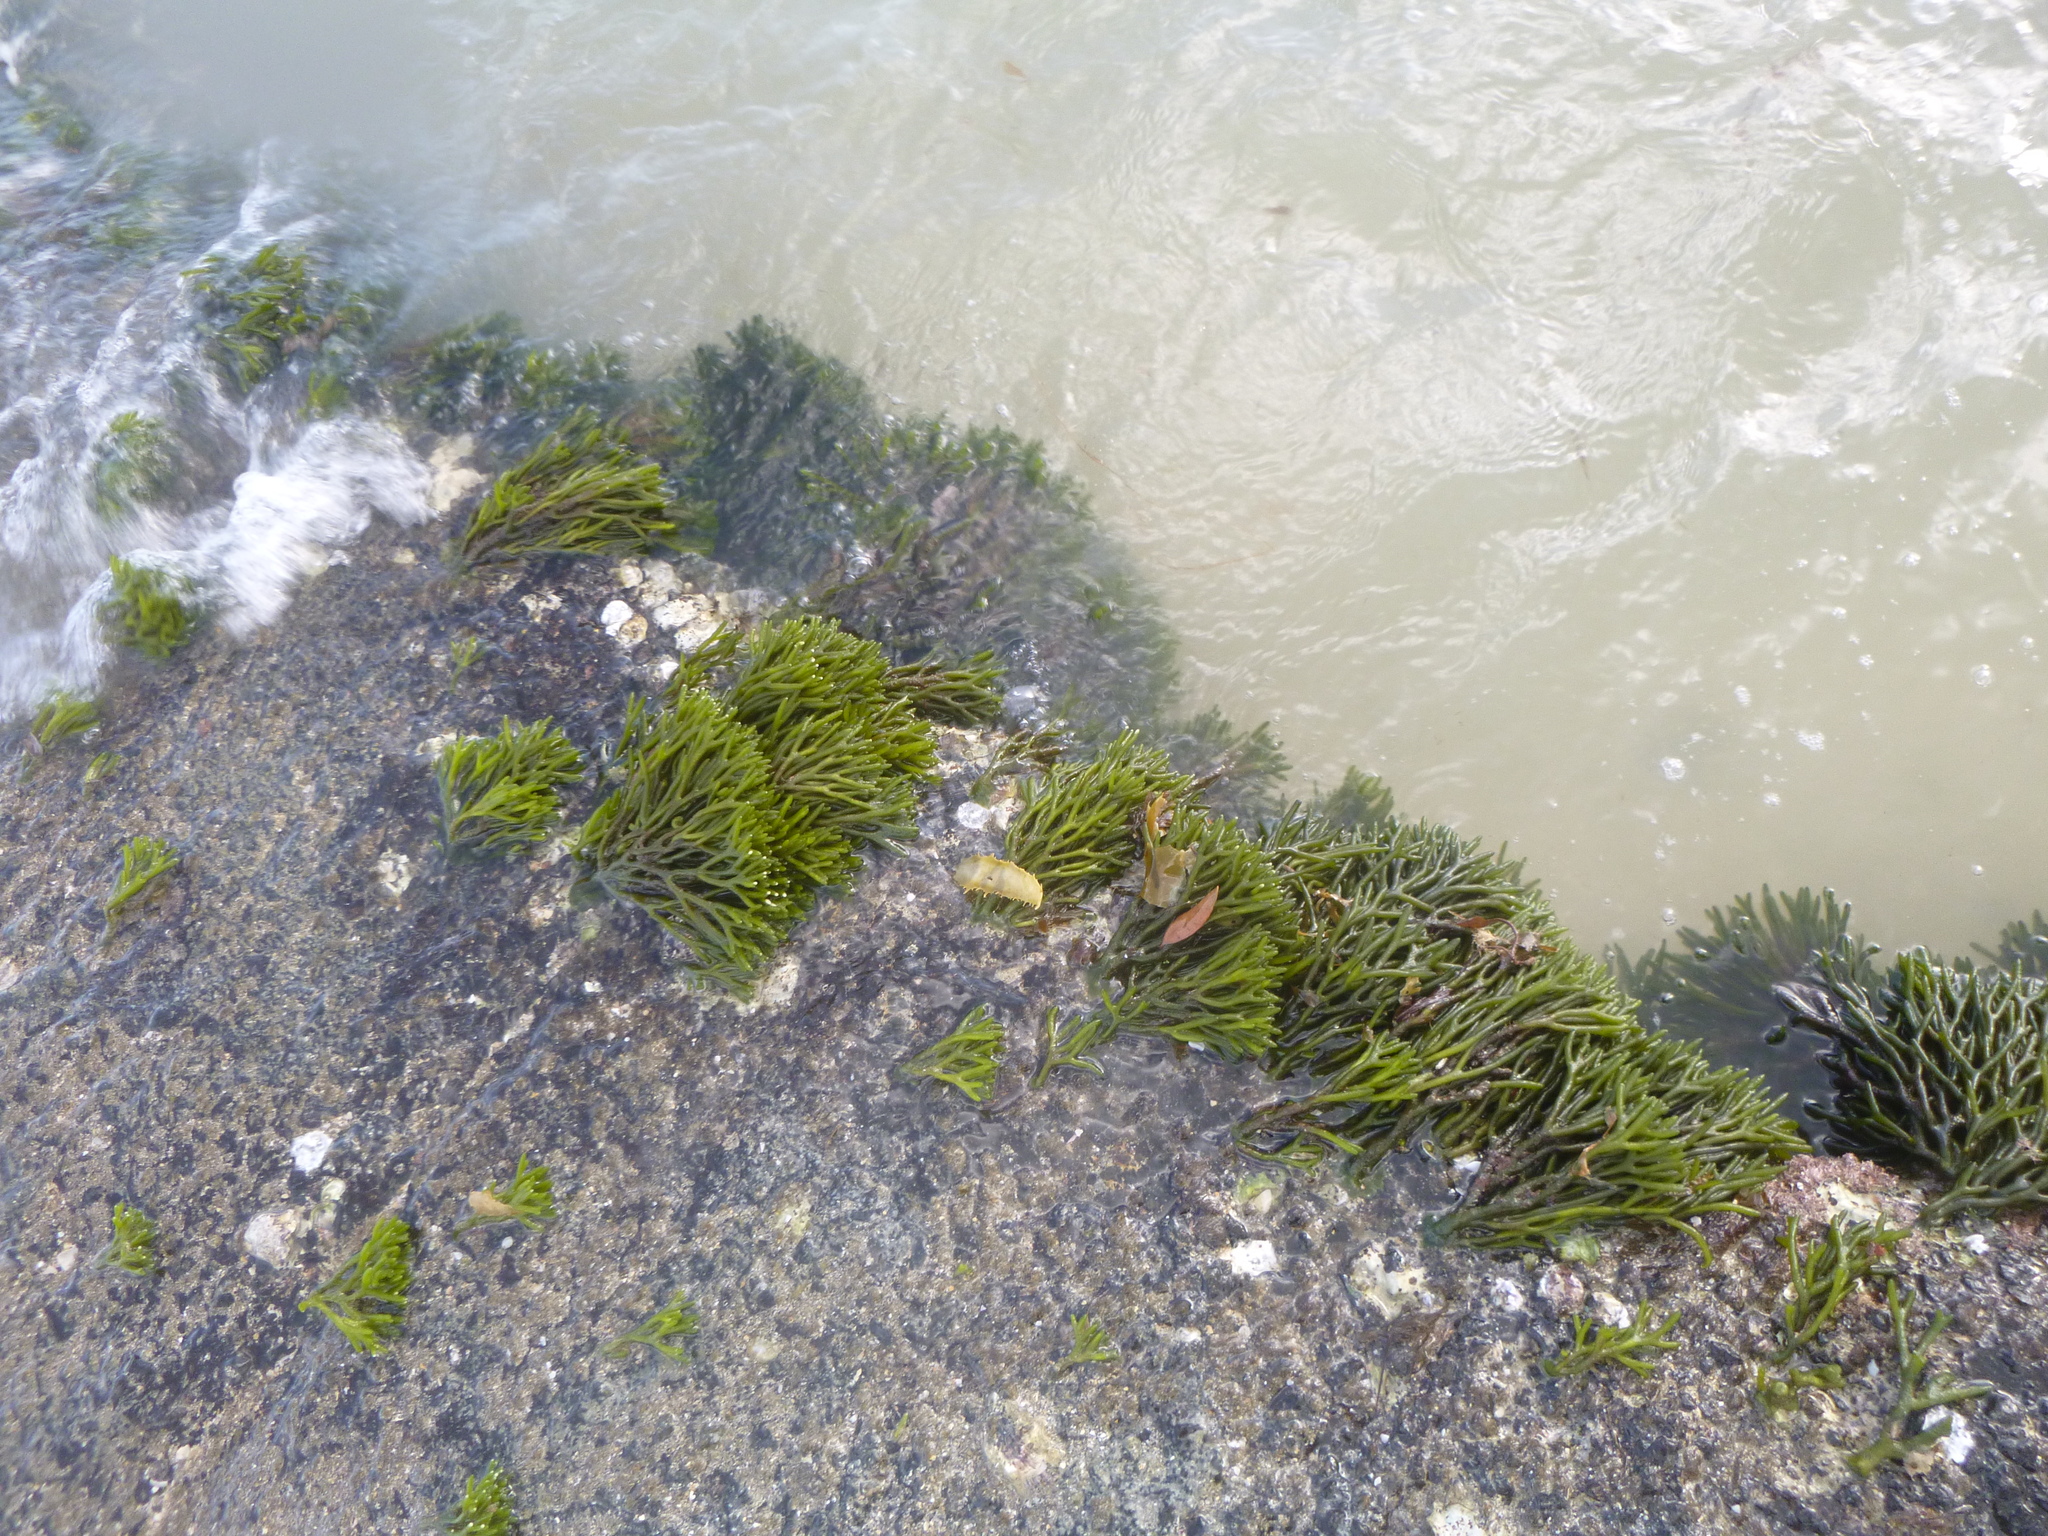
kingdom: Plantae
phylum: Chlorophyta
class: Ulvophyceae
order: Bryopsidales
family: Codiaceae
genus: Codium
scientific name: Codium fragile
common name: Dead man's fingers
